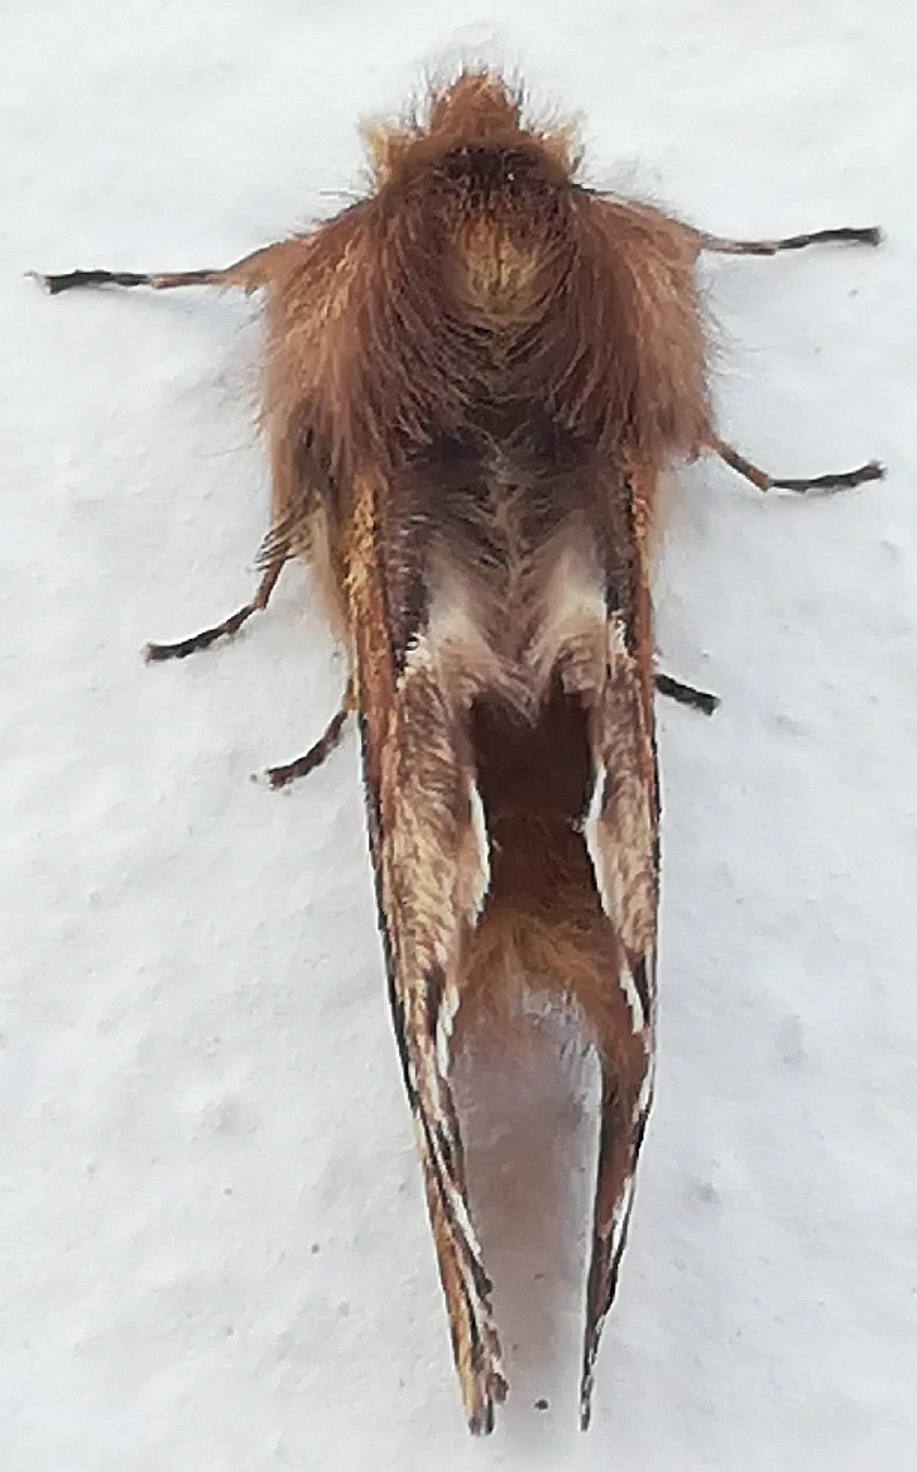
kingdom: Animalia
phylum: Arthropoda
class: Insecta
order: Lepidoptera
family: Notodontidae
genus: Ptilophora
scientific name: Ptilophora plumigera
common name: Plumed prominent
